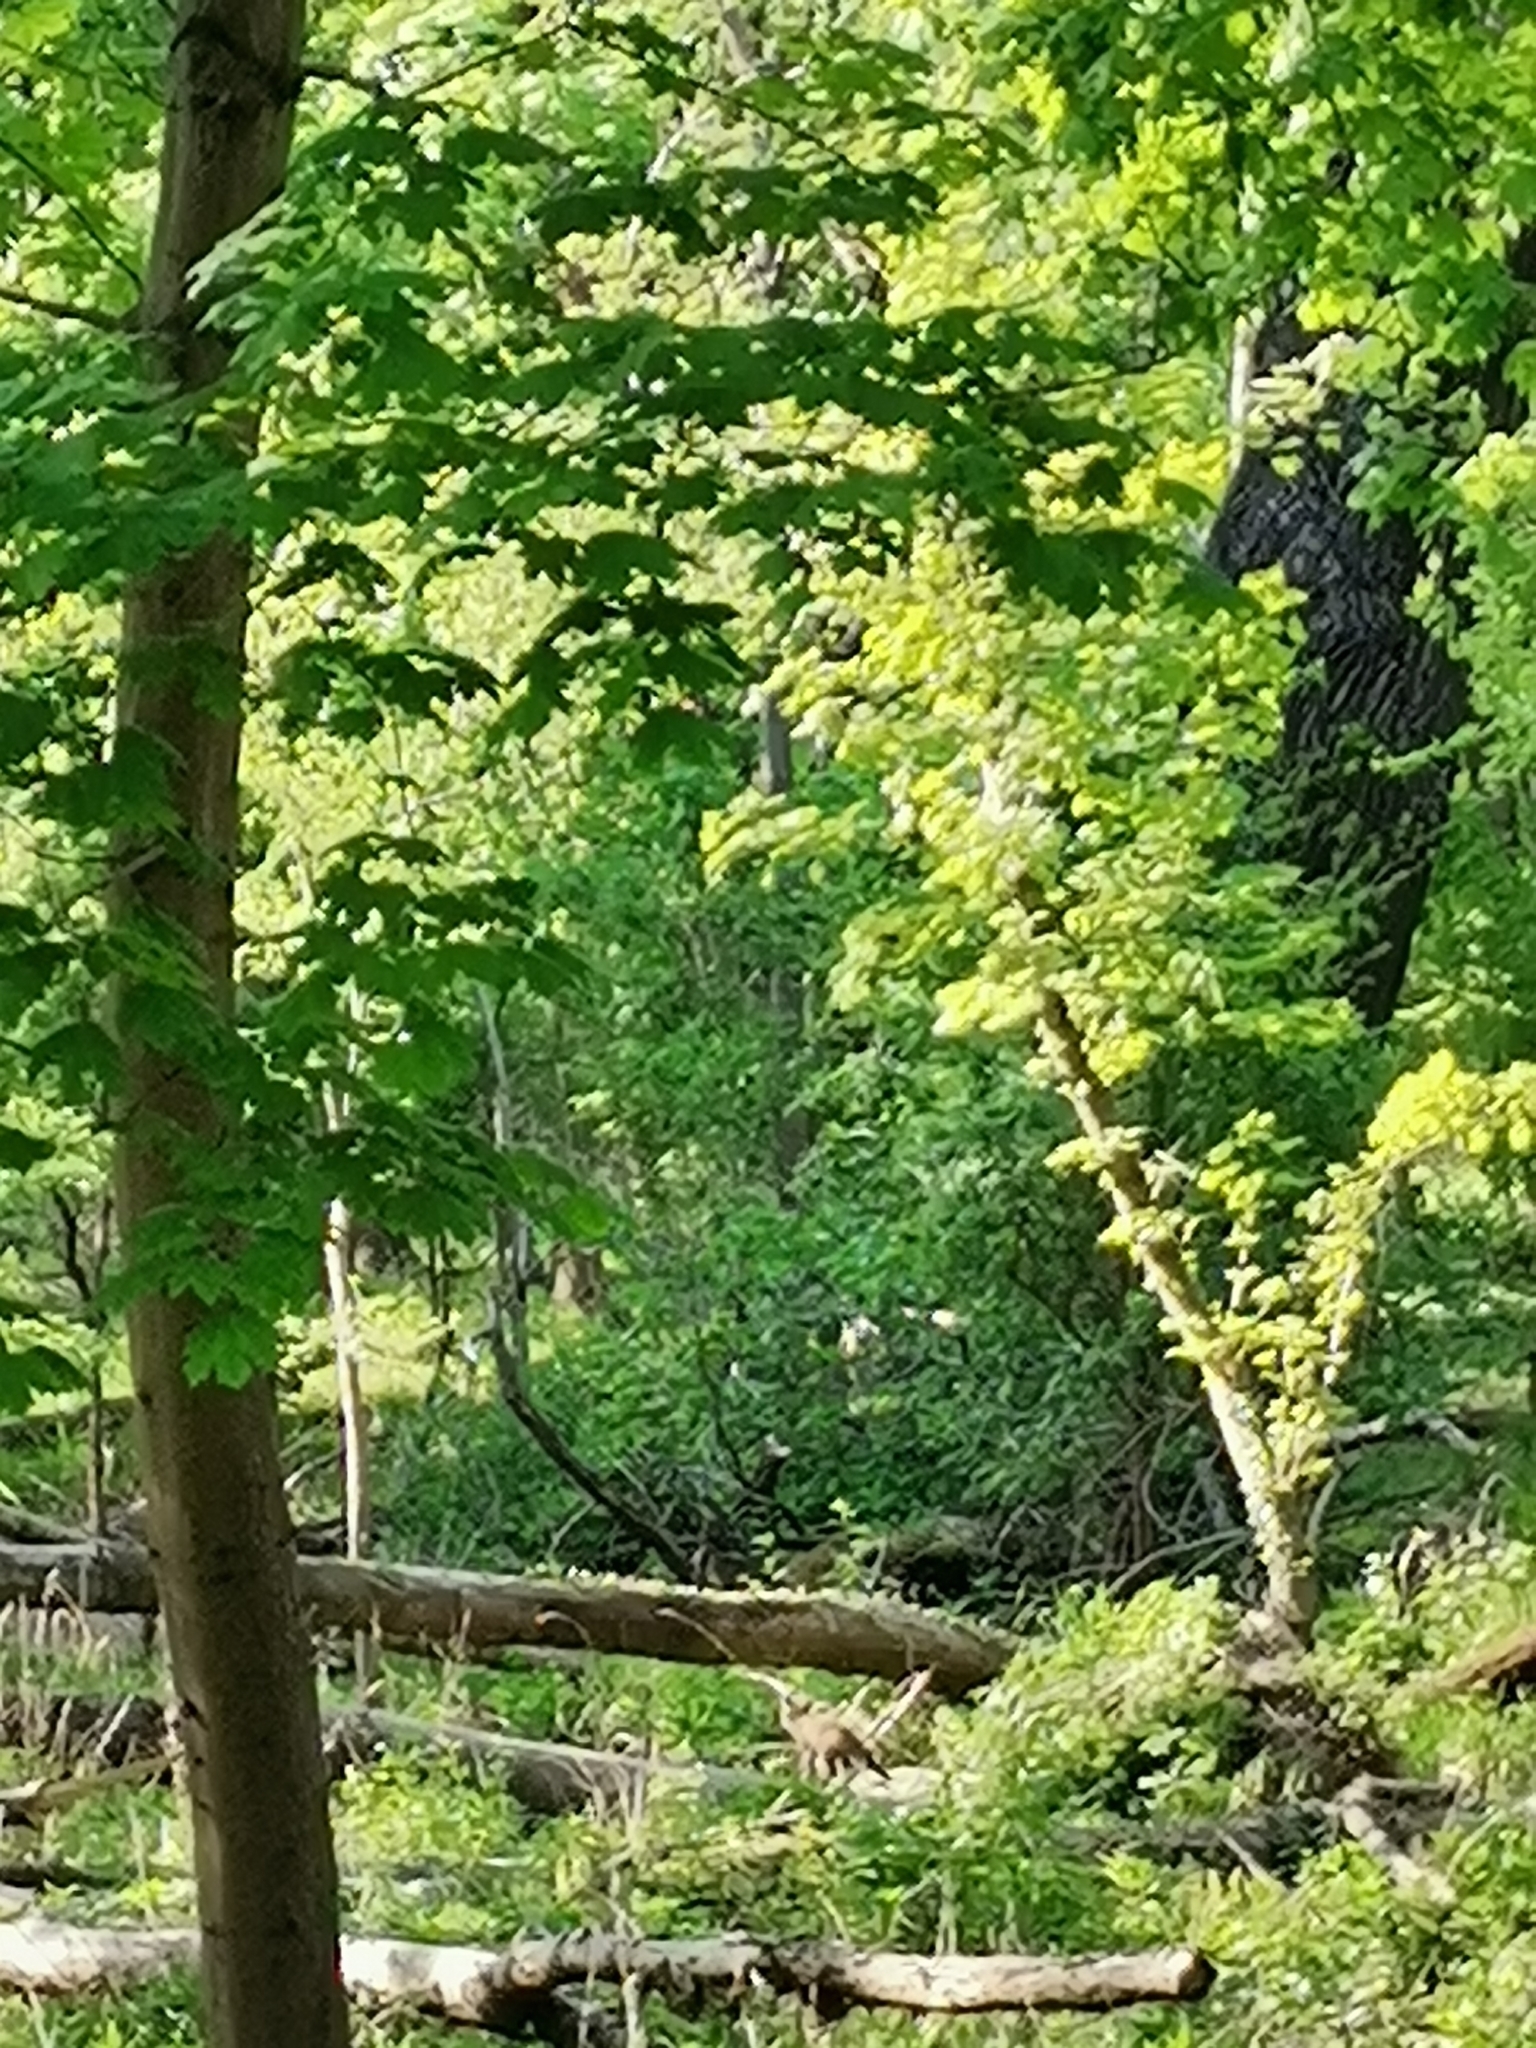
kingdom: Animalia
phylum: Chordata
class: Mammalia
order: Carnivora
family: Canidae
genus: Vulpes
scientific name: Vulpes vulpes
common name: Red fox
